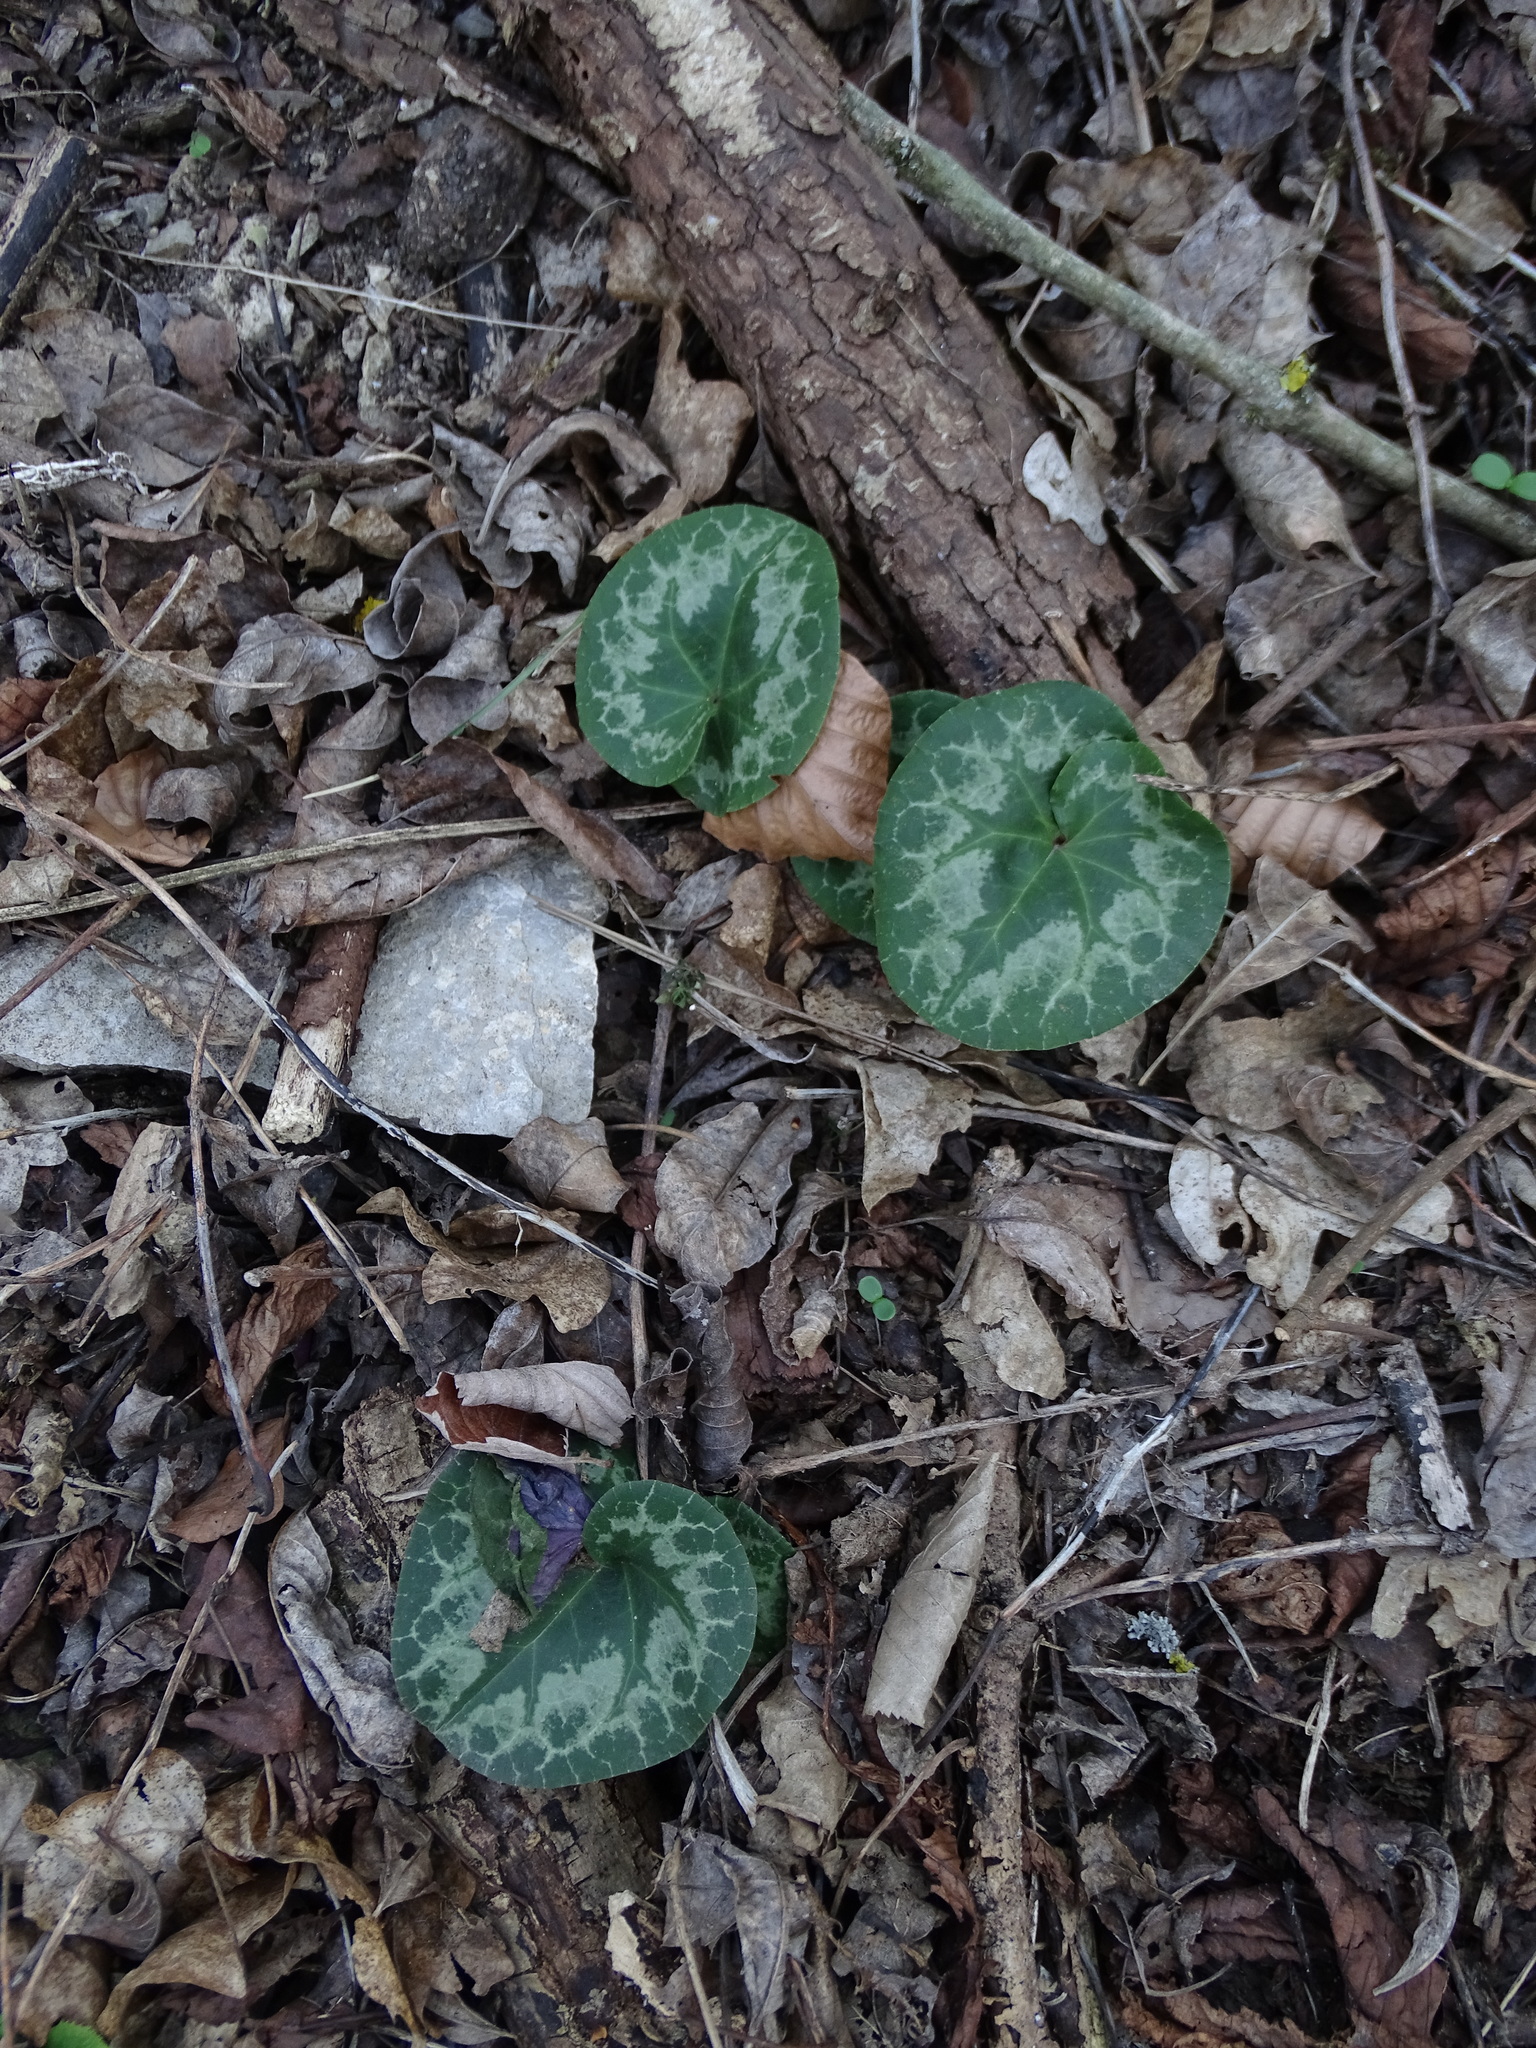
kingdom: Plantae
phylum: Tracheophyta
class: Magnoliopsida
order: Ericales
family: Primulaceae
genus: Cyclamen
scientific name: Cyclamen purpurascens
